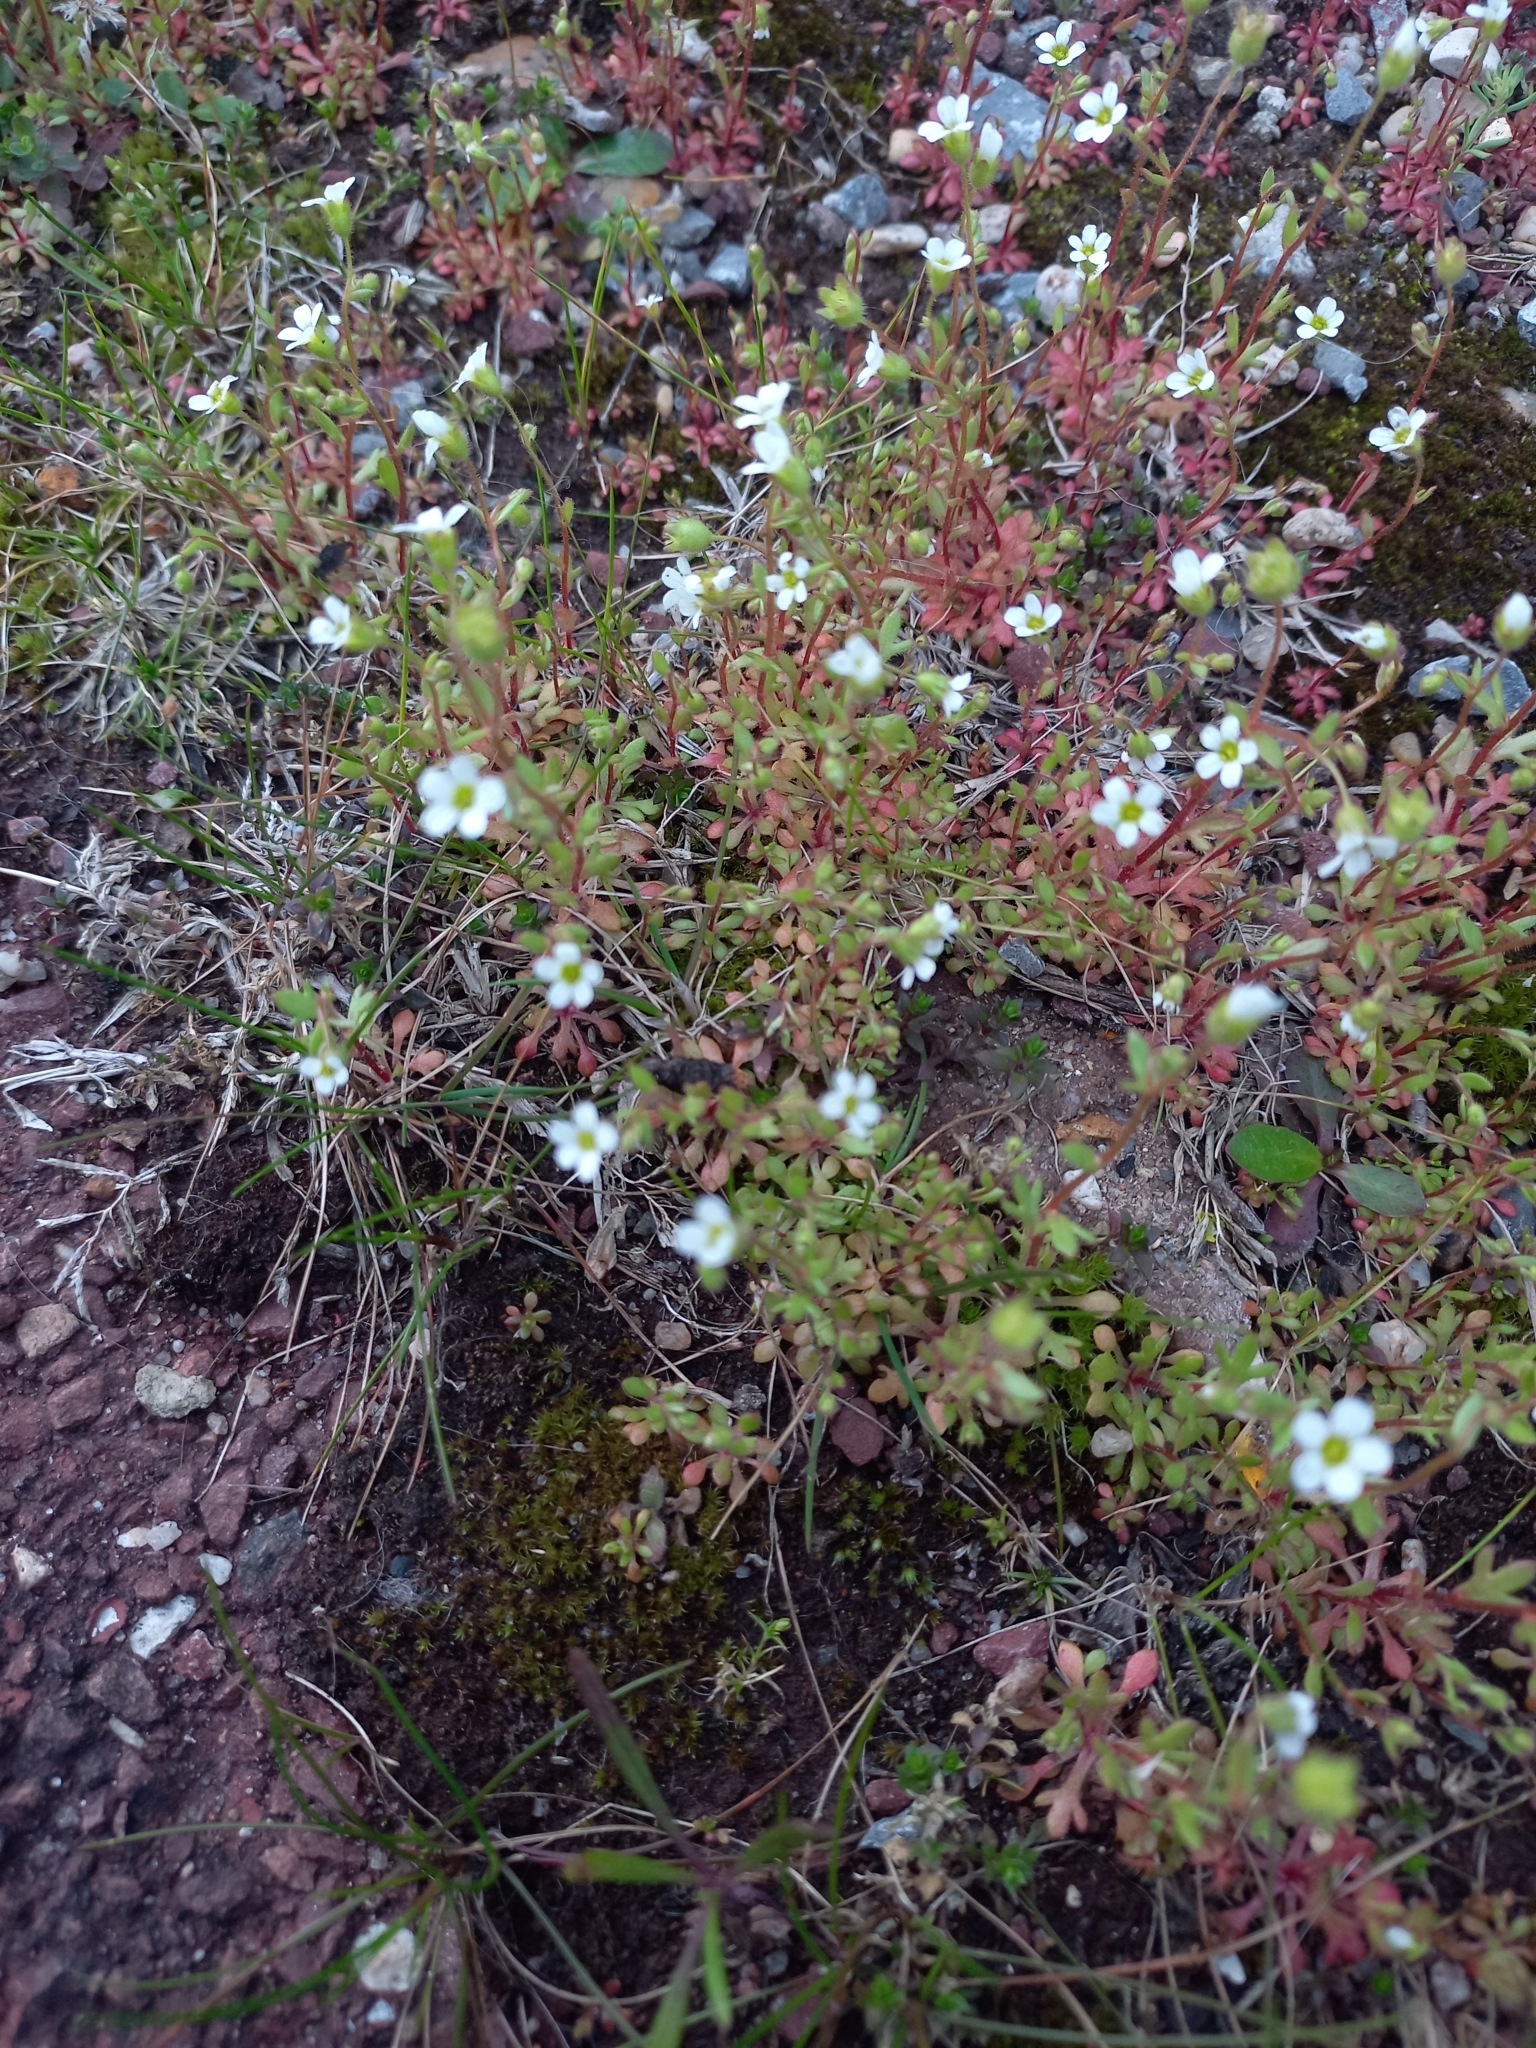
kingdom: Plantae
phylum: Tracheophyta
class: Magnoliopsida
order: Saxifragales
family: Saxifragaceae
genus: Saxifraga
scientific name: Saxifraga tridactylites
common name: Rue-leaved saxifrage
